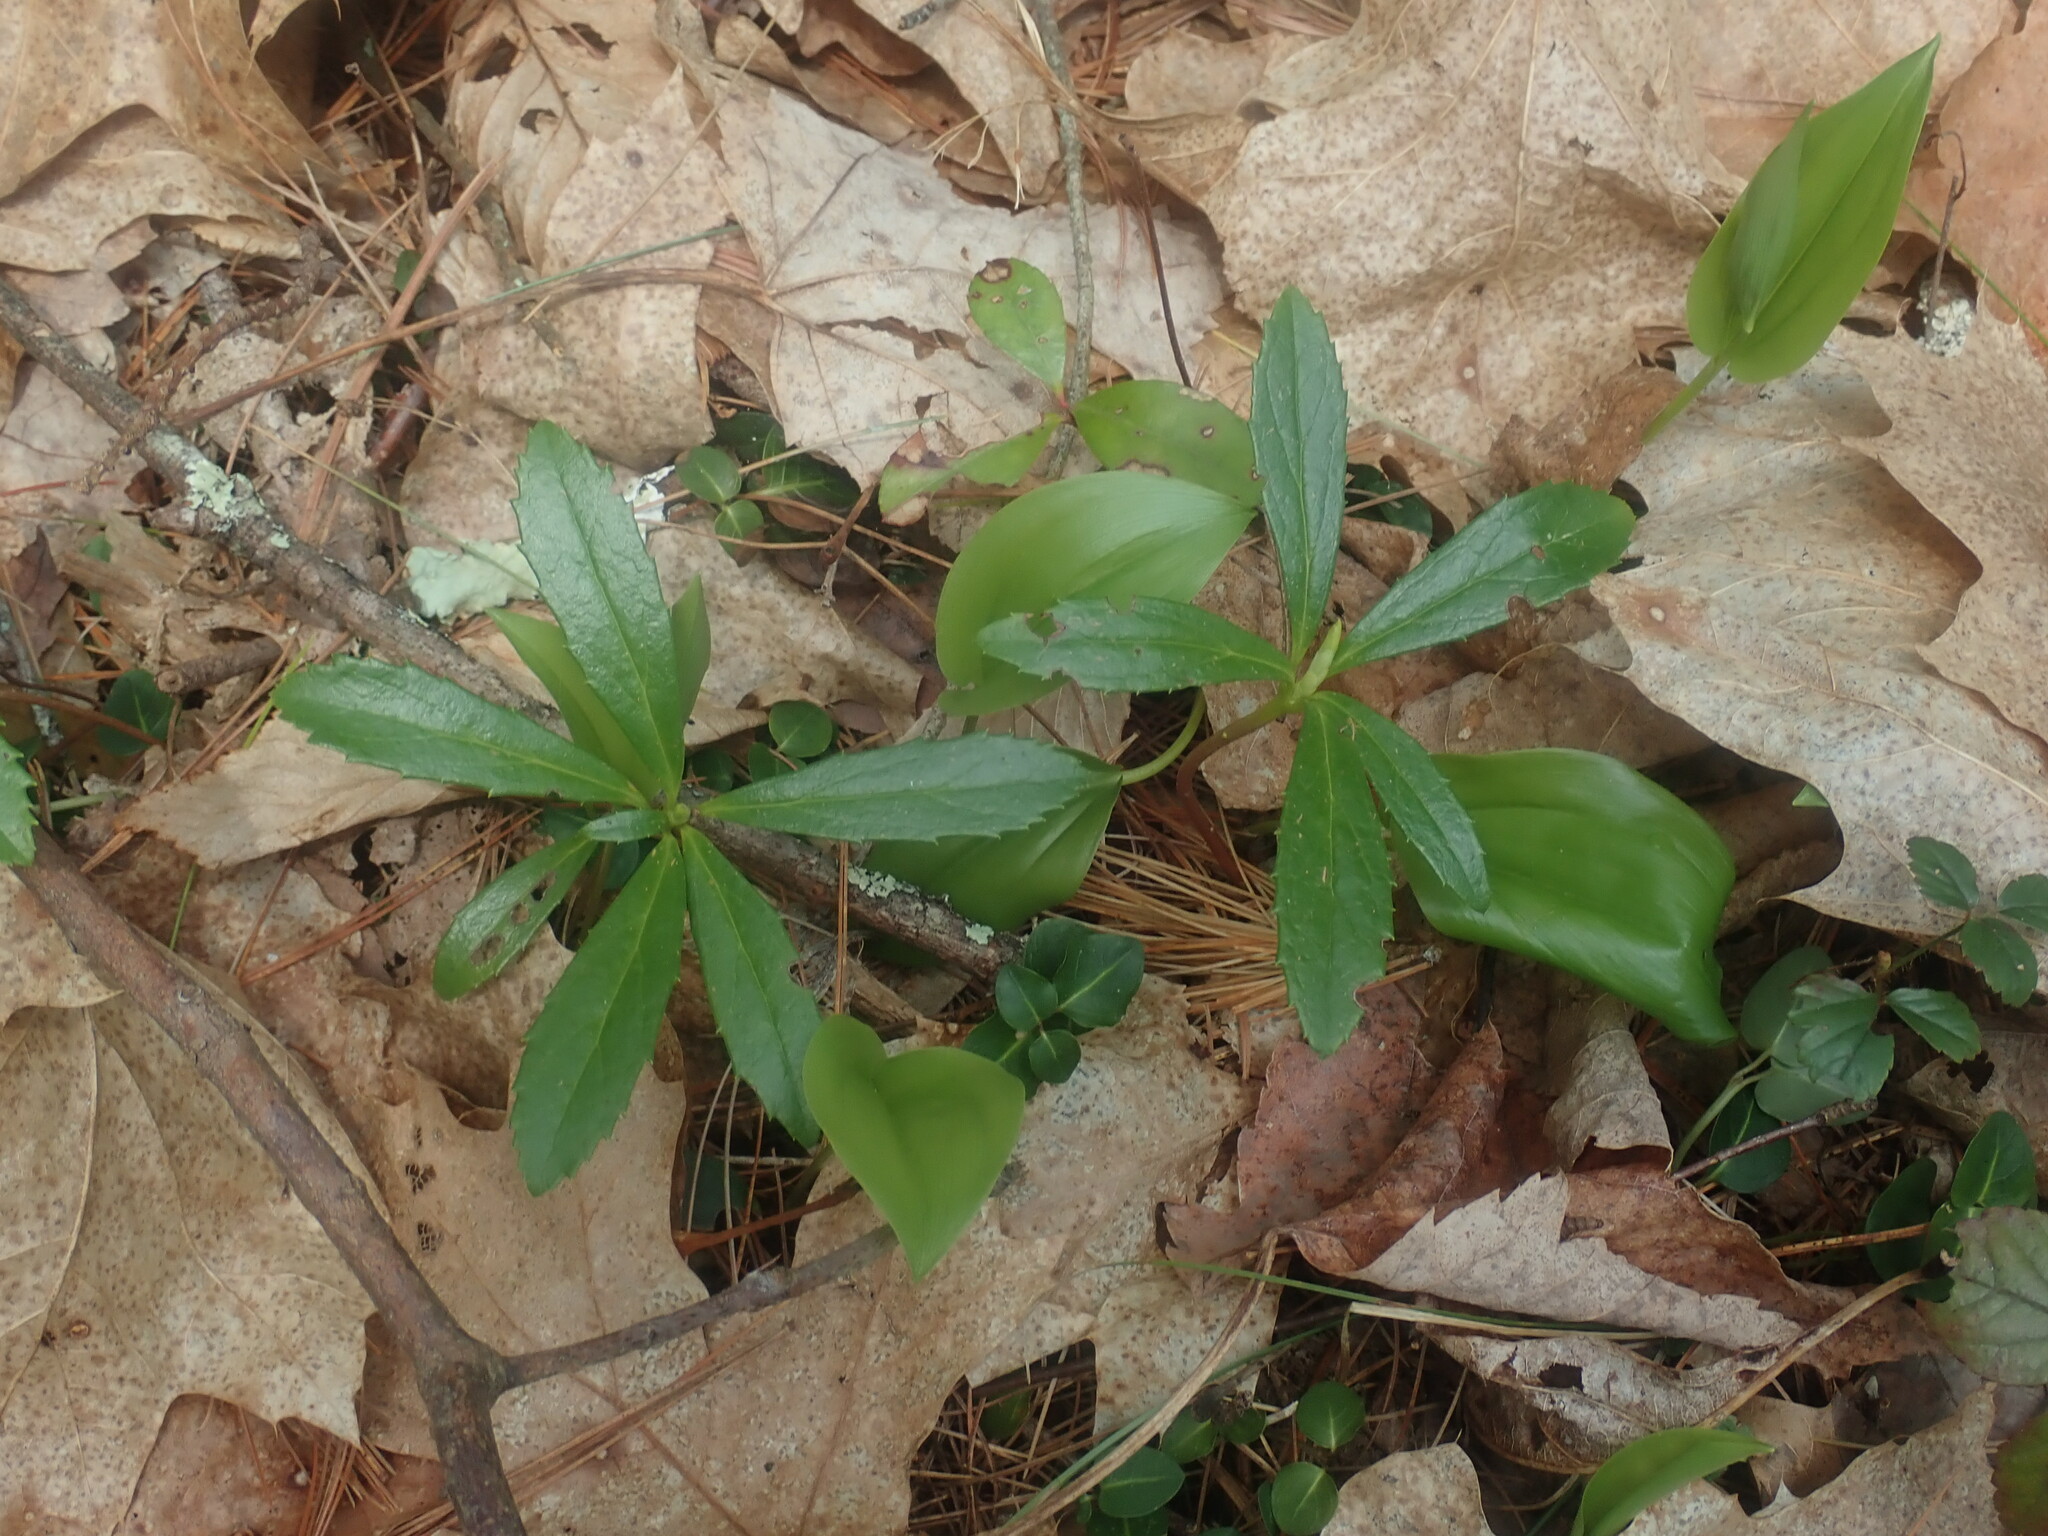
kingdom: Plantae
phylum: Tracheophyta
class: Magnoliopsida
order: Ericales
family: Ericaceae
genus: Chimaphila
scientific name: Chimaphila umbellata
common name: Pipsissewa
